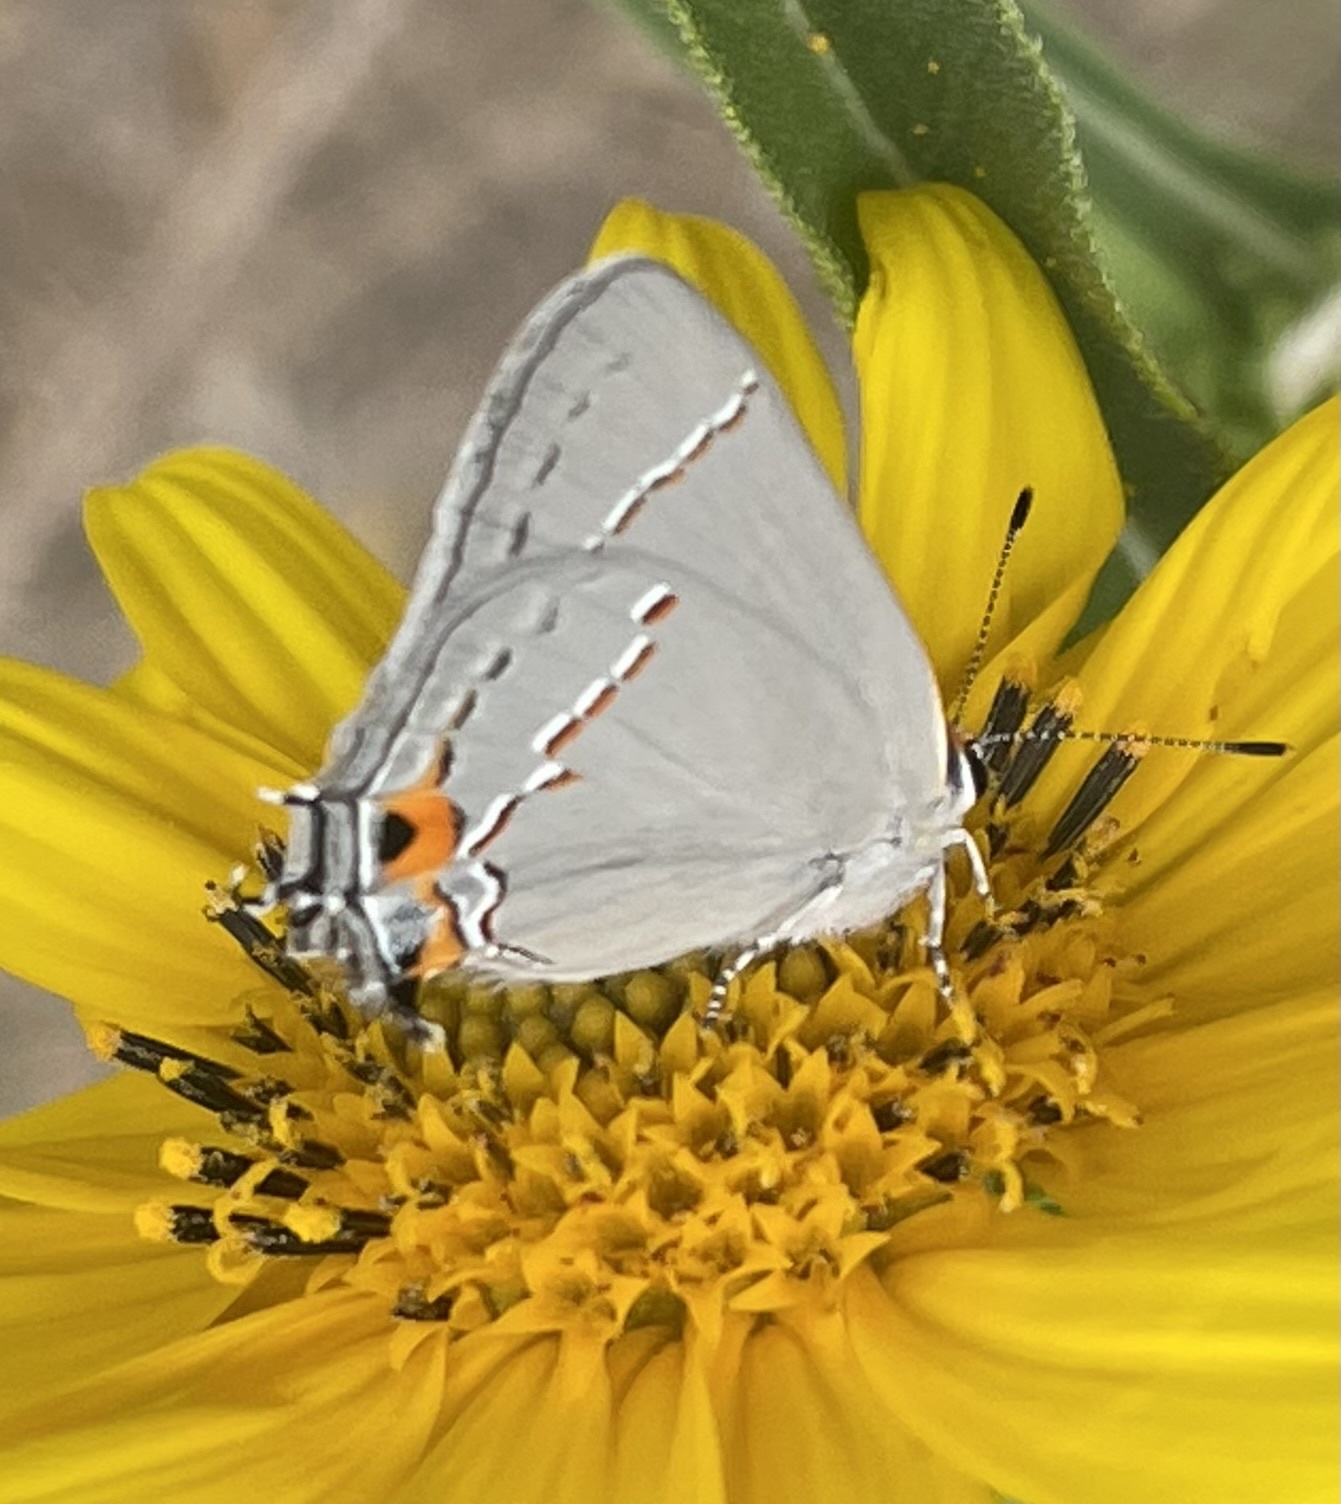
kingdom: Animalia
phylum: Arthropoda
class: Insecta
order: Lepidoptera
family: Lycaenidae
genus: Strymon
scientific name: Strymon melinus
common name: Gray hairstreak
